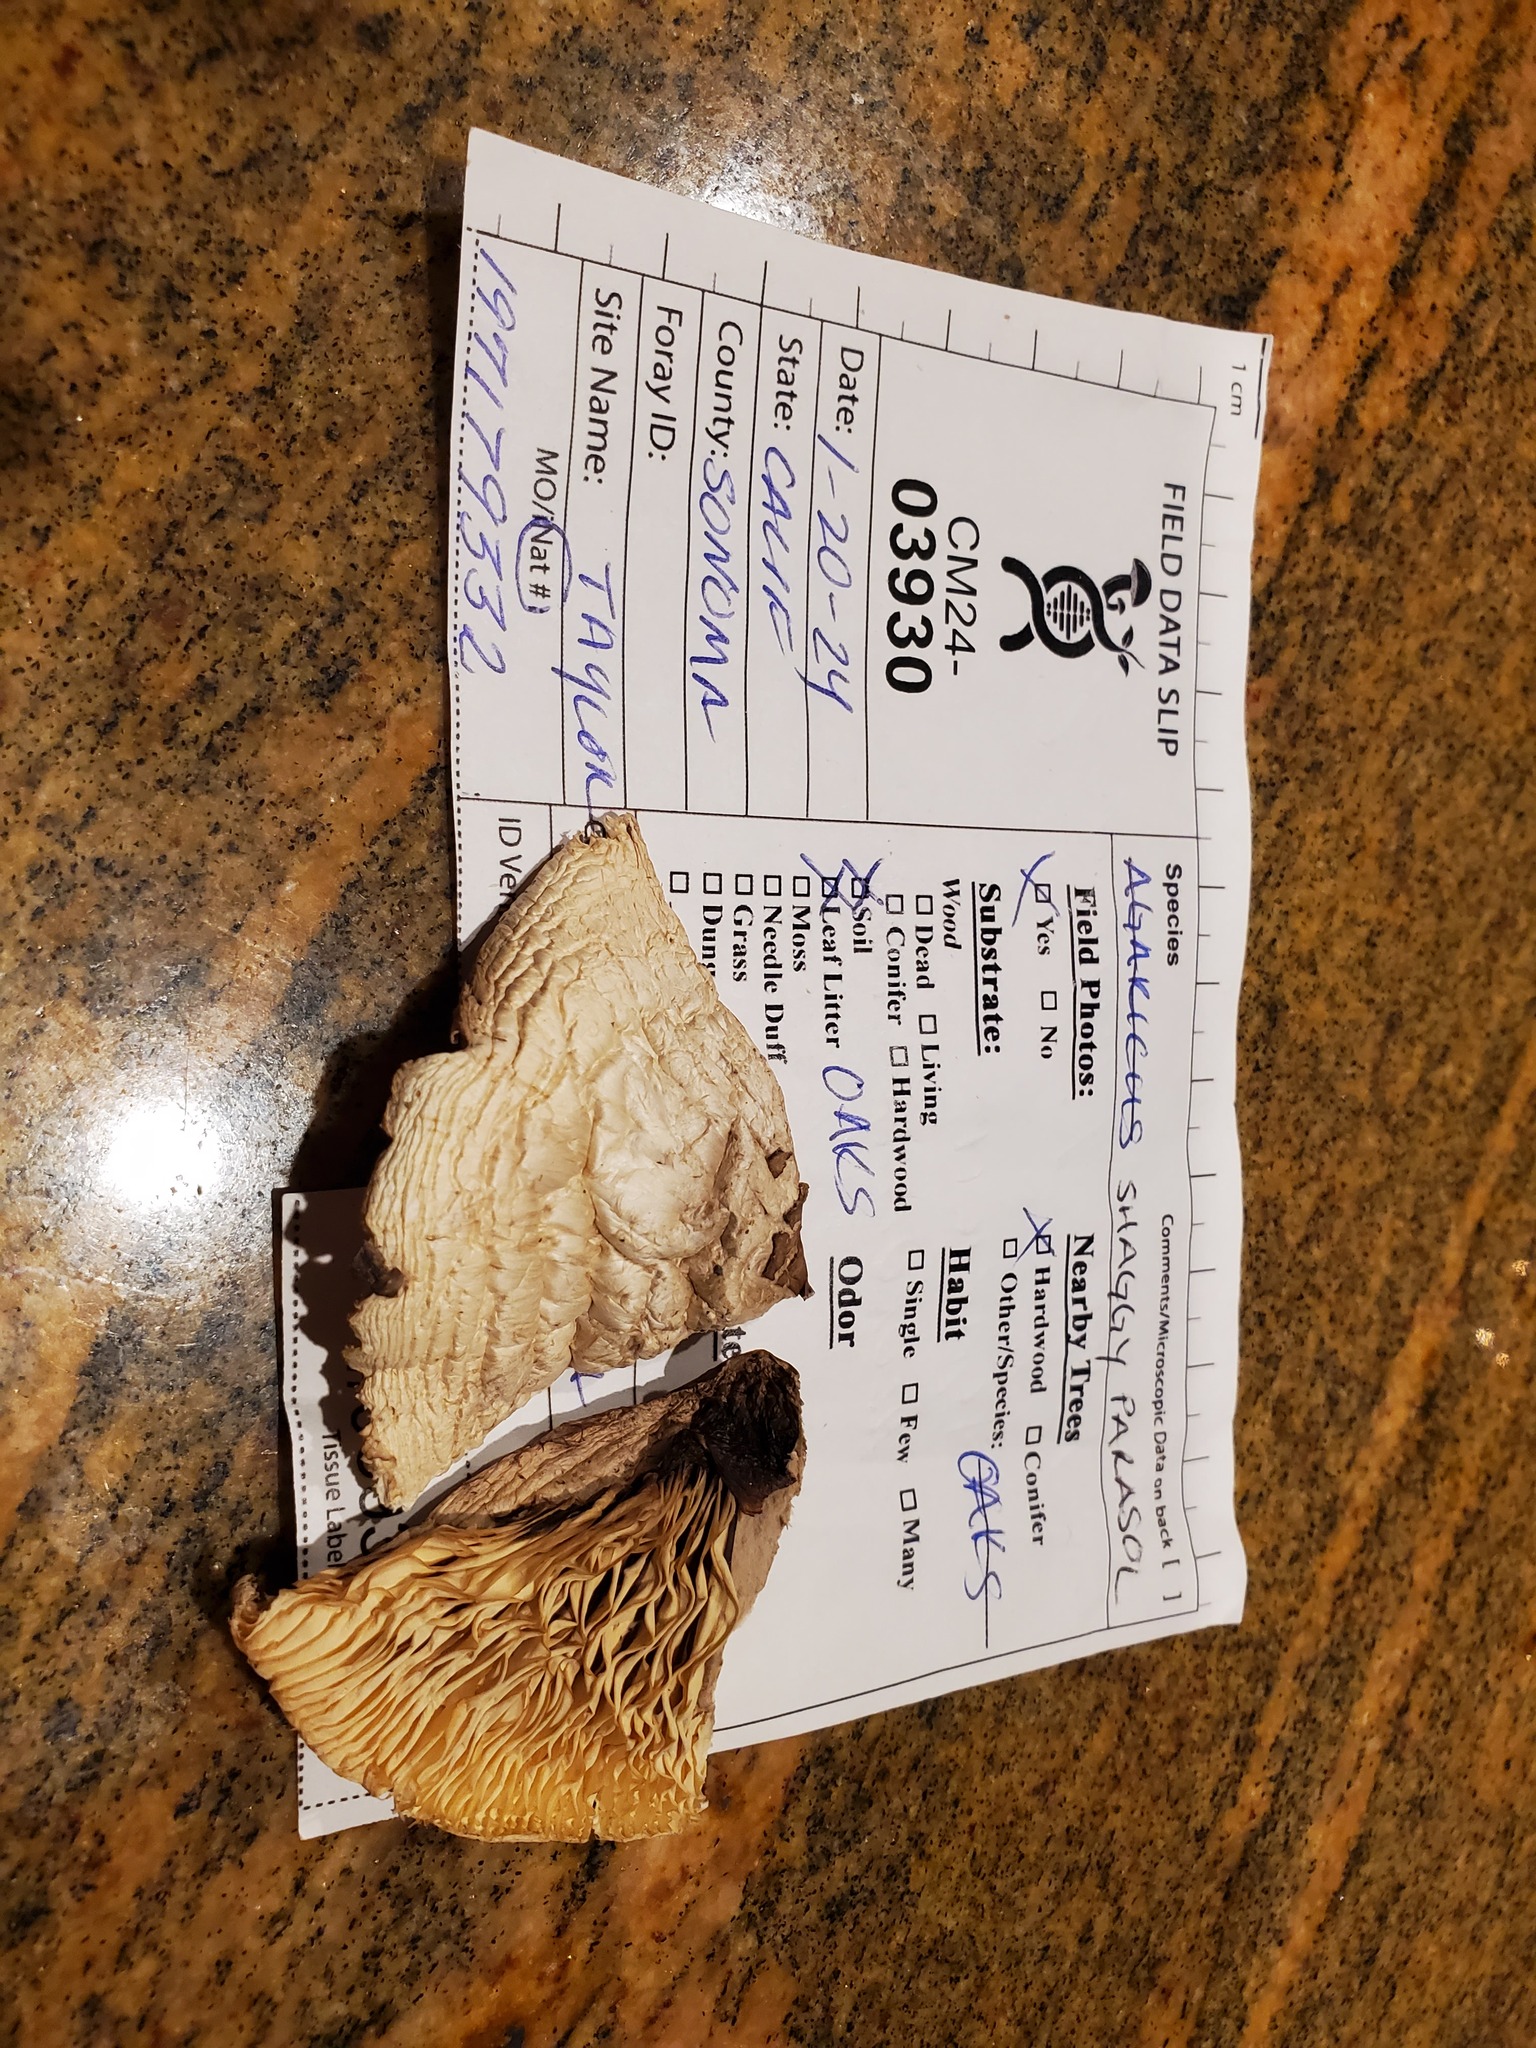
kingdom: Fungi
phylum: Basidiomycota
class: Agaricomycetes
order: Agaricales
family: Agaricaceae
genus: Chlorophyllum
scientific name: Chlorophyllum brunneum
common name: Brown parasol
